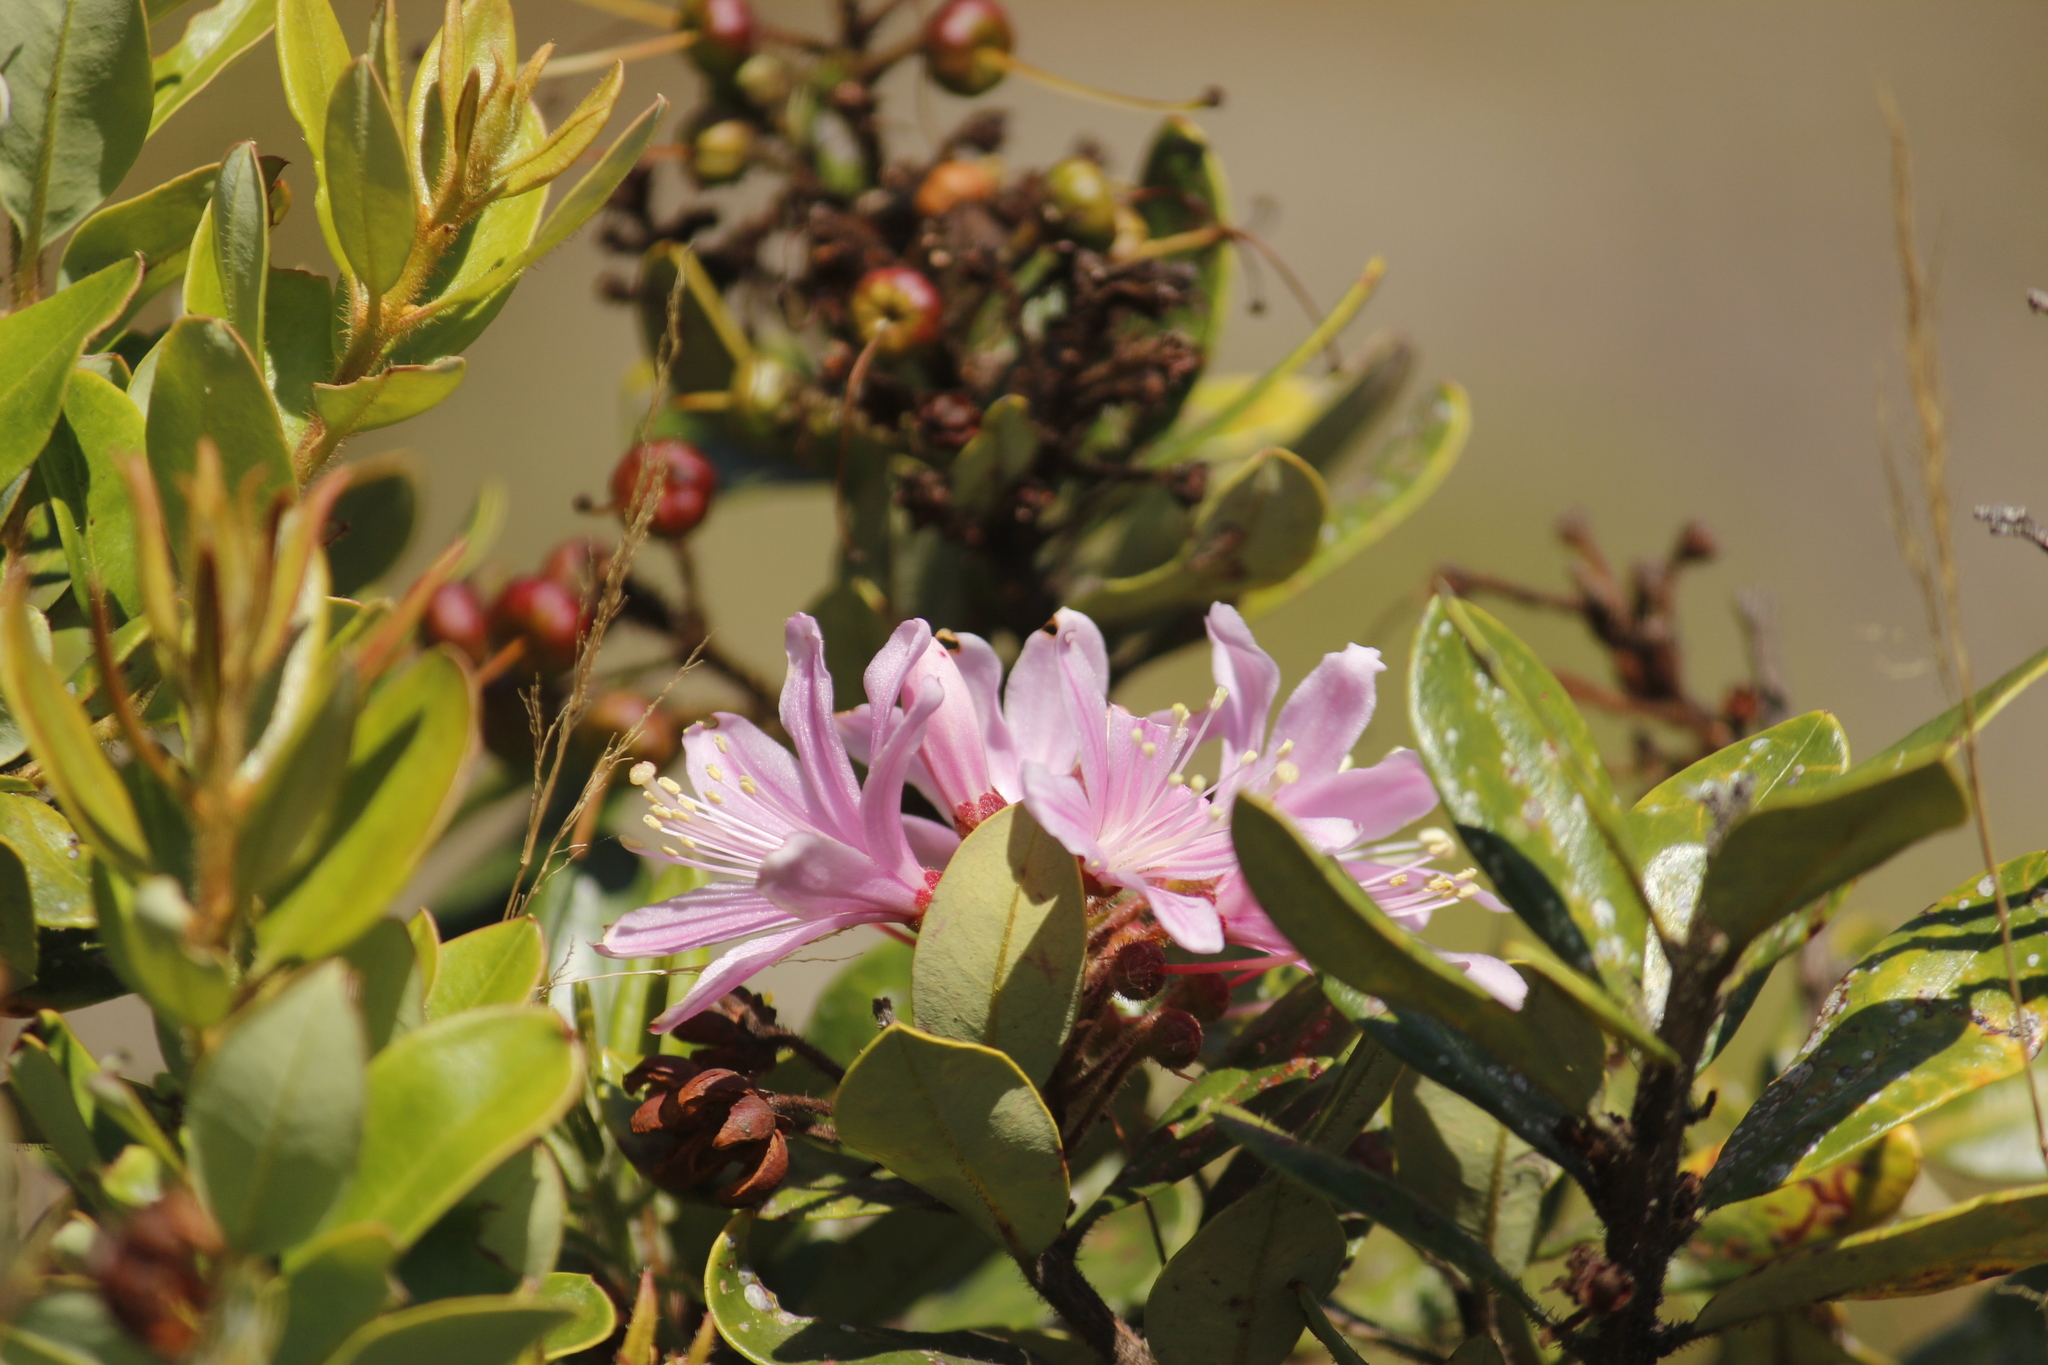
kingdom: Plantae
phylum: Tracheophyta
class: Magnoliopsida
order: Ericales
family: Ericaceae
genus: Bejaria
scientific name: Bejaria aestuans
